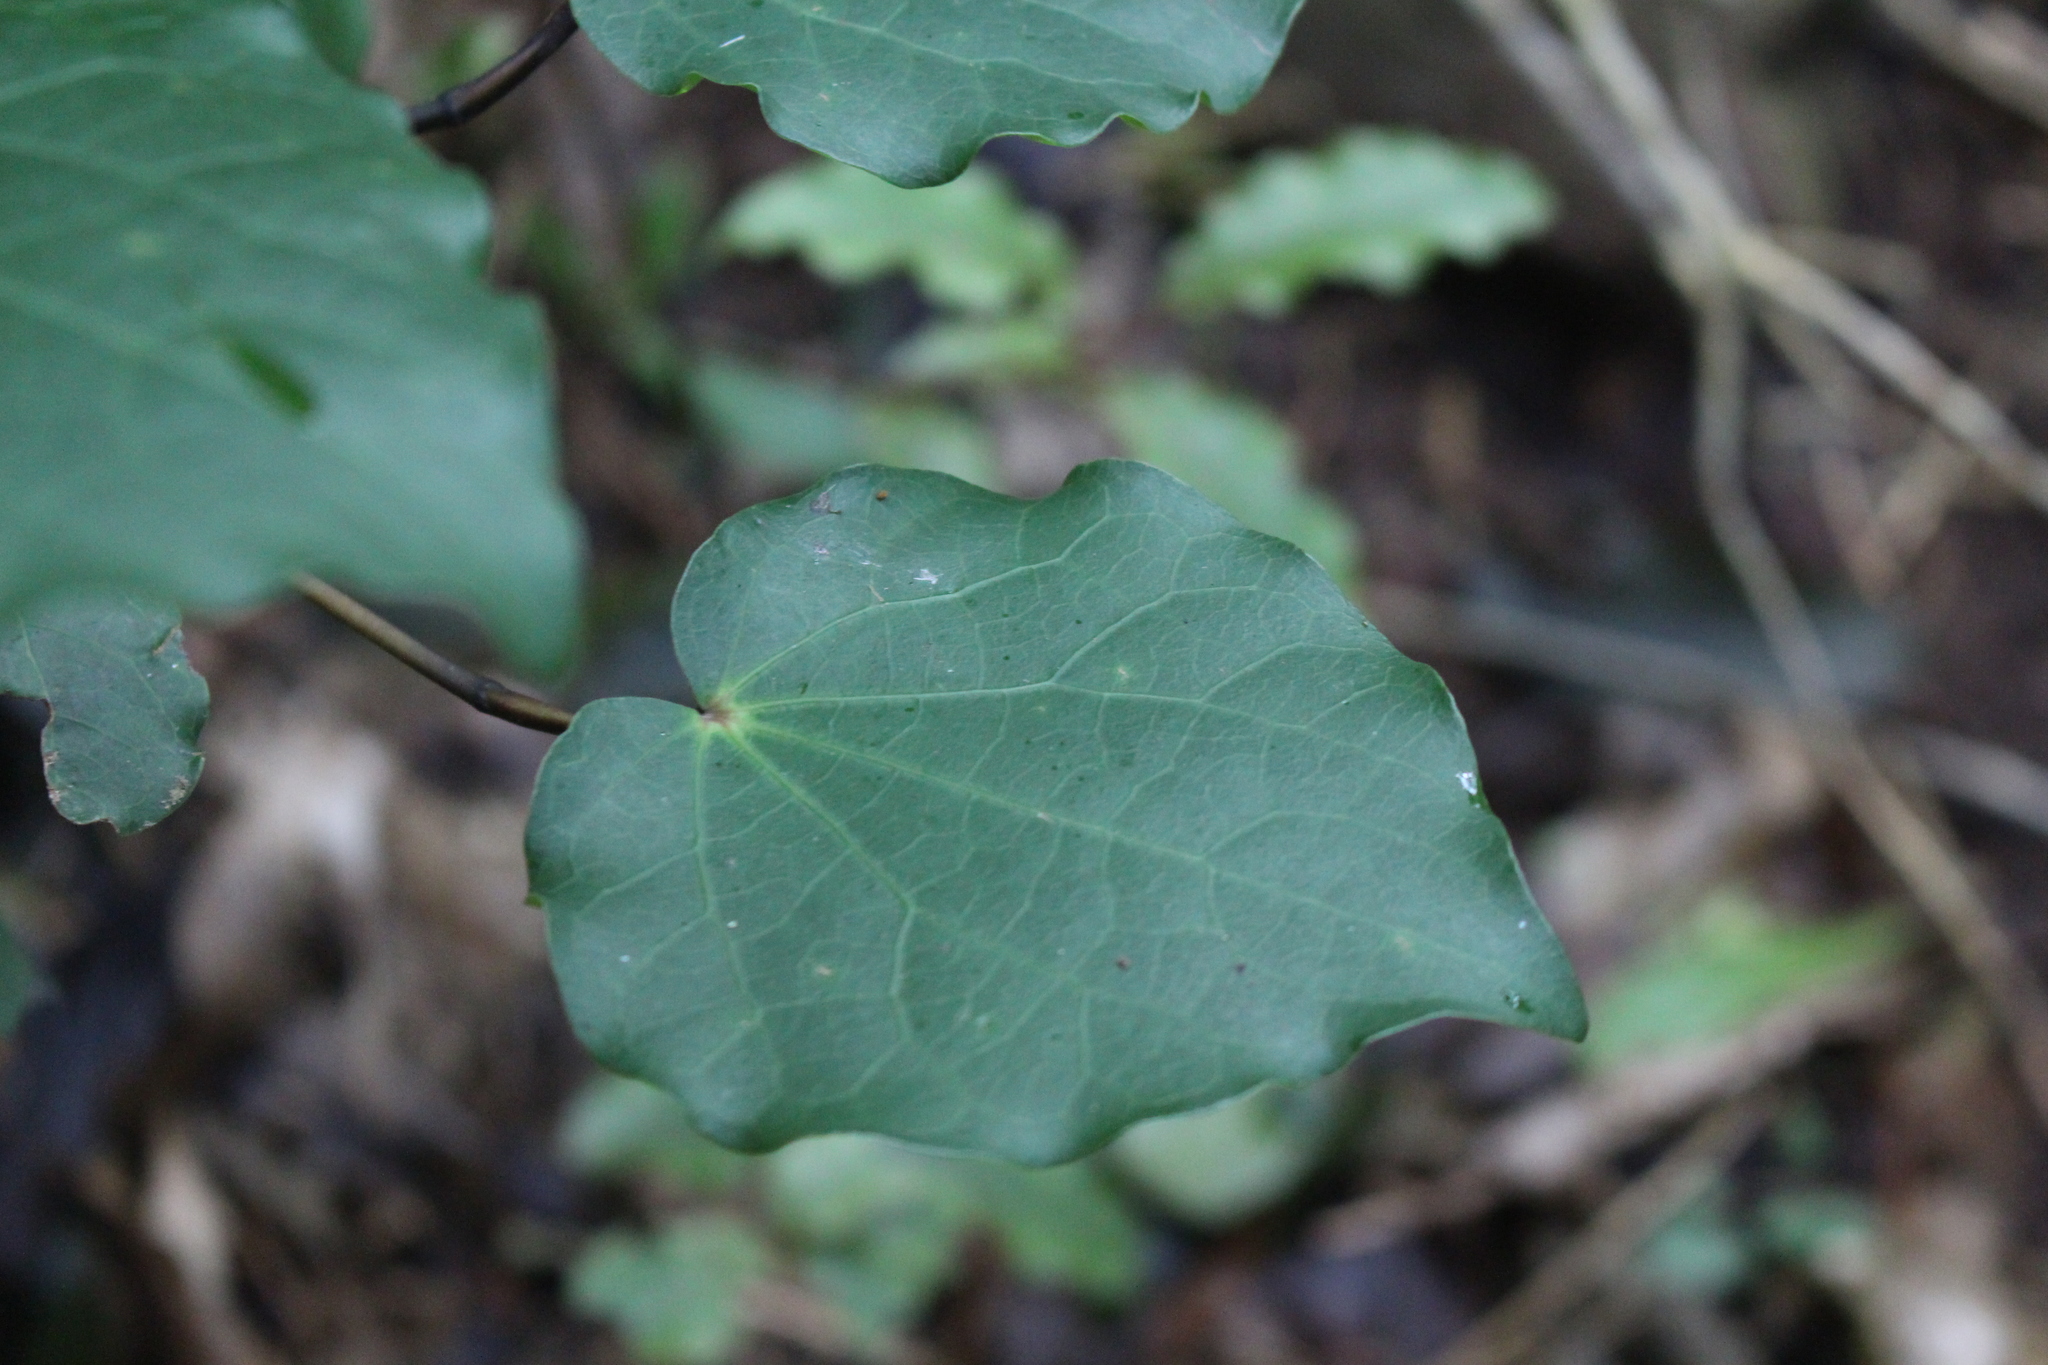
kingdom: Plantae
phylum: Tracheophyta
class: Magnoliopsida
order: Piperales
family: Piperaceae
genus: Macropiper
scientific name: Macropiper excelsum
